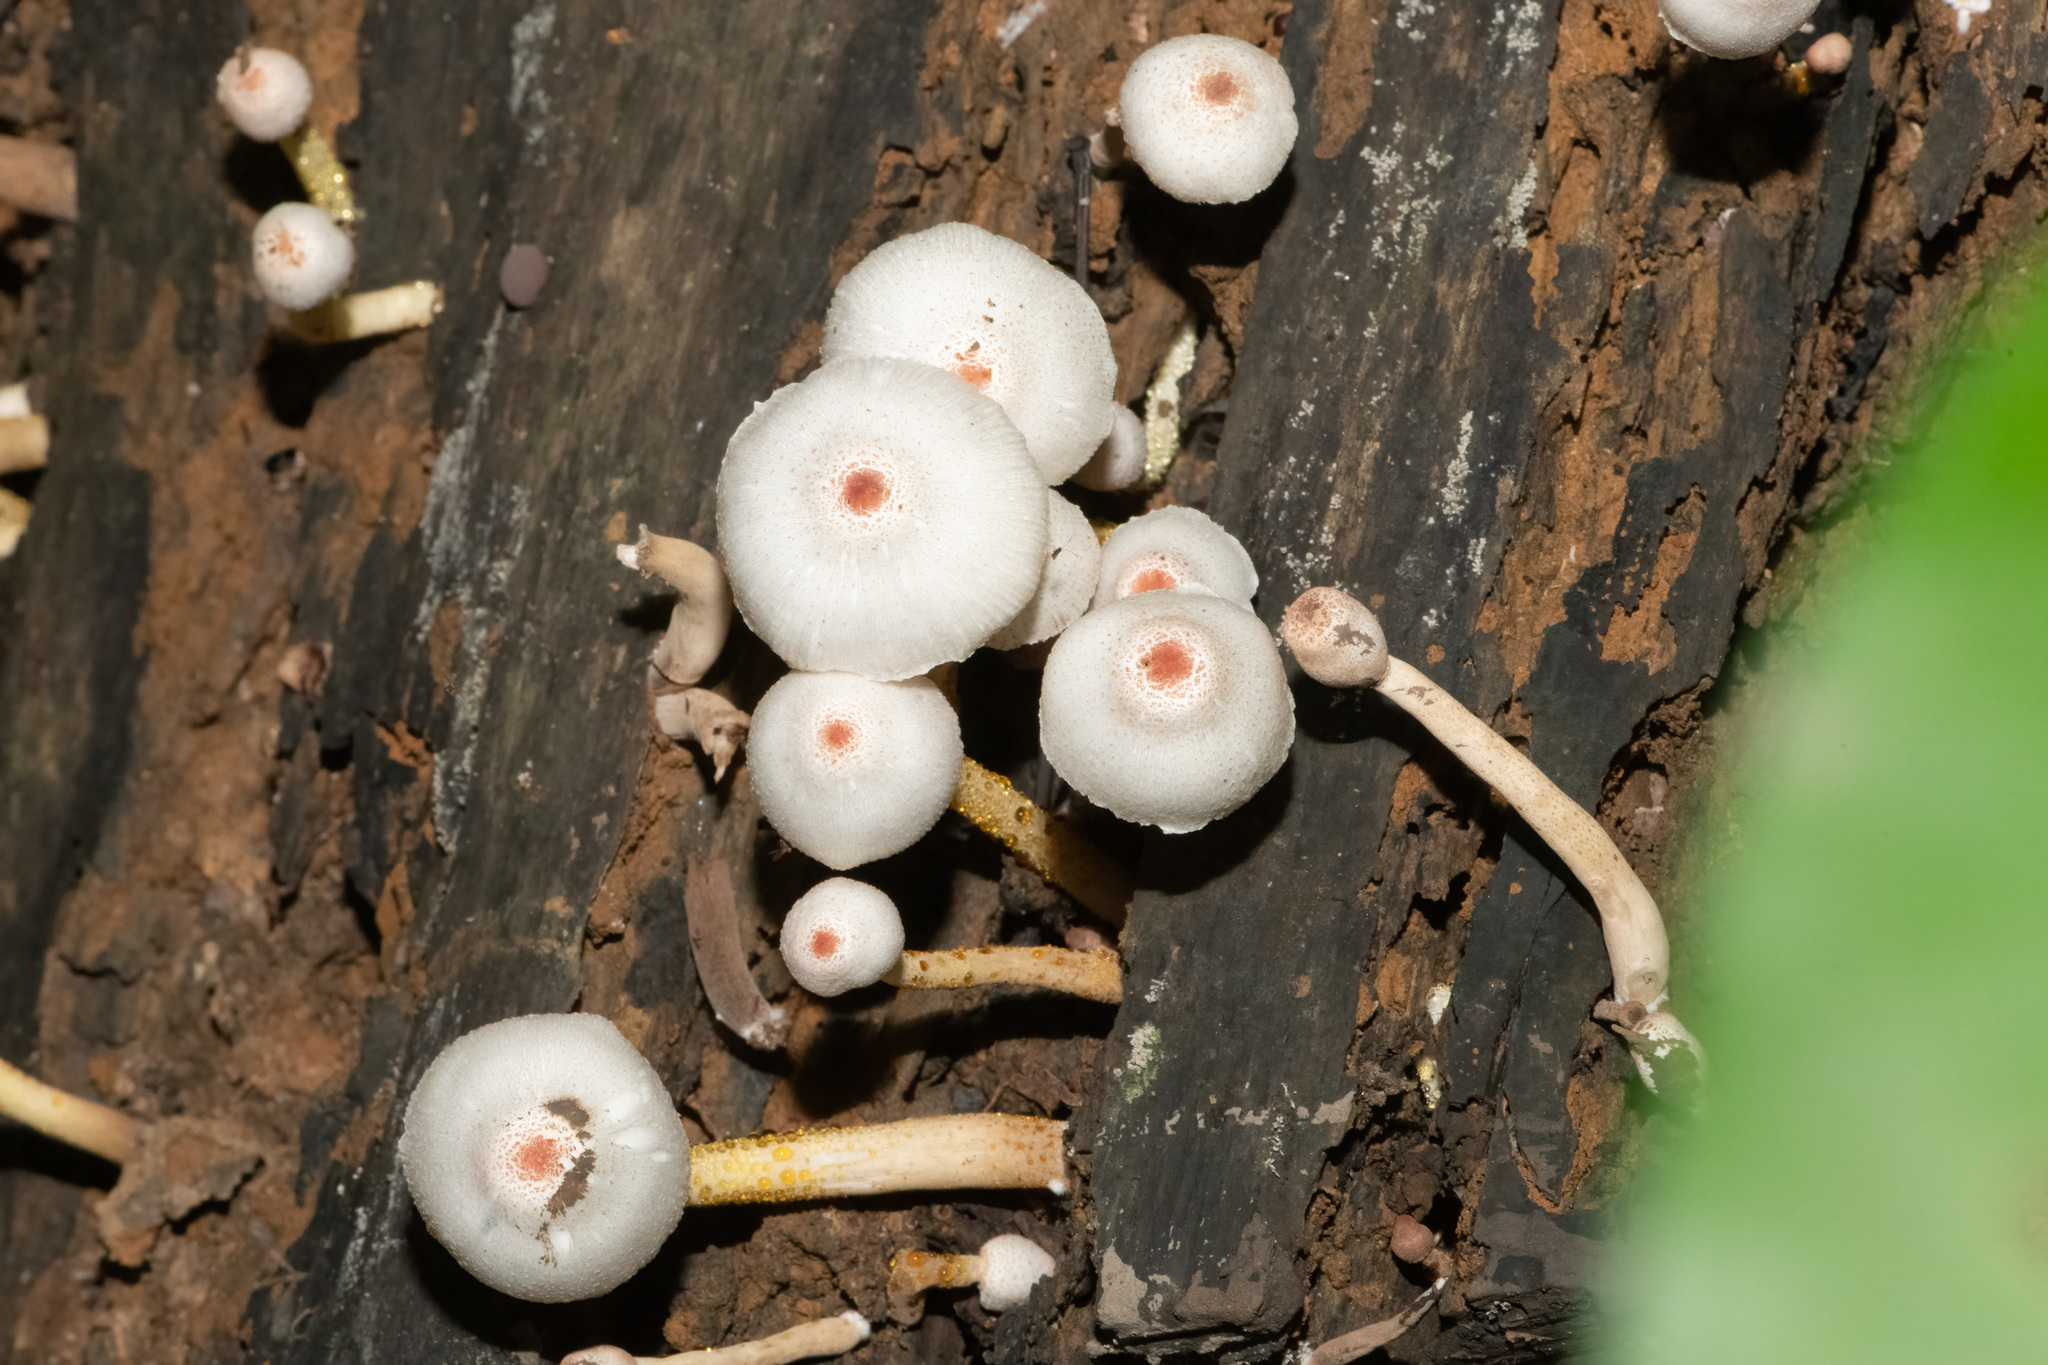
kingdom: Fungi
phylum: Basidiomycota
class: Agaricomycetes
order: Agaricales
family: Agaricaceae
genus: Leucoagaricus
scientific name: Leucoagaricus lacrymans
